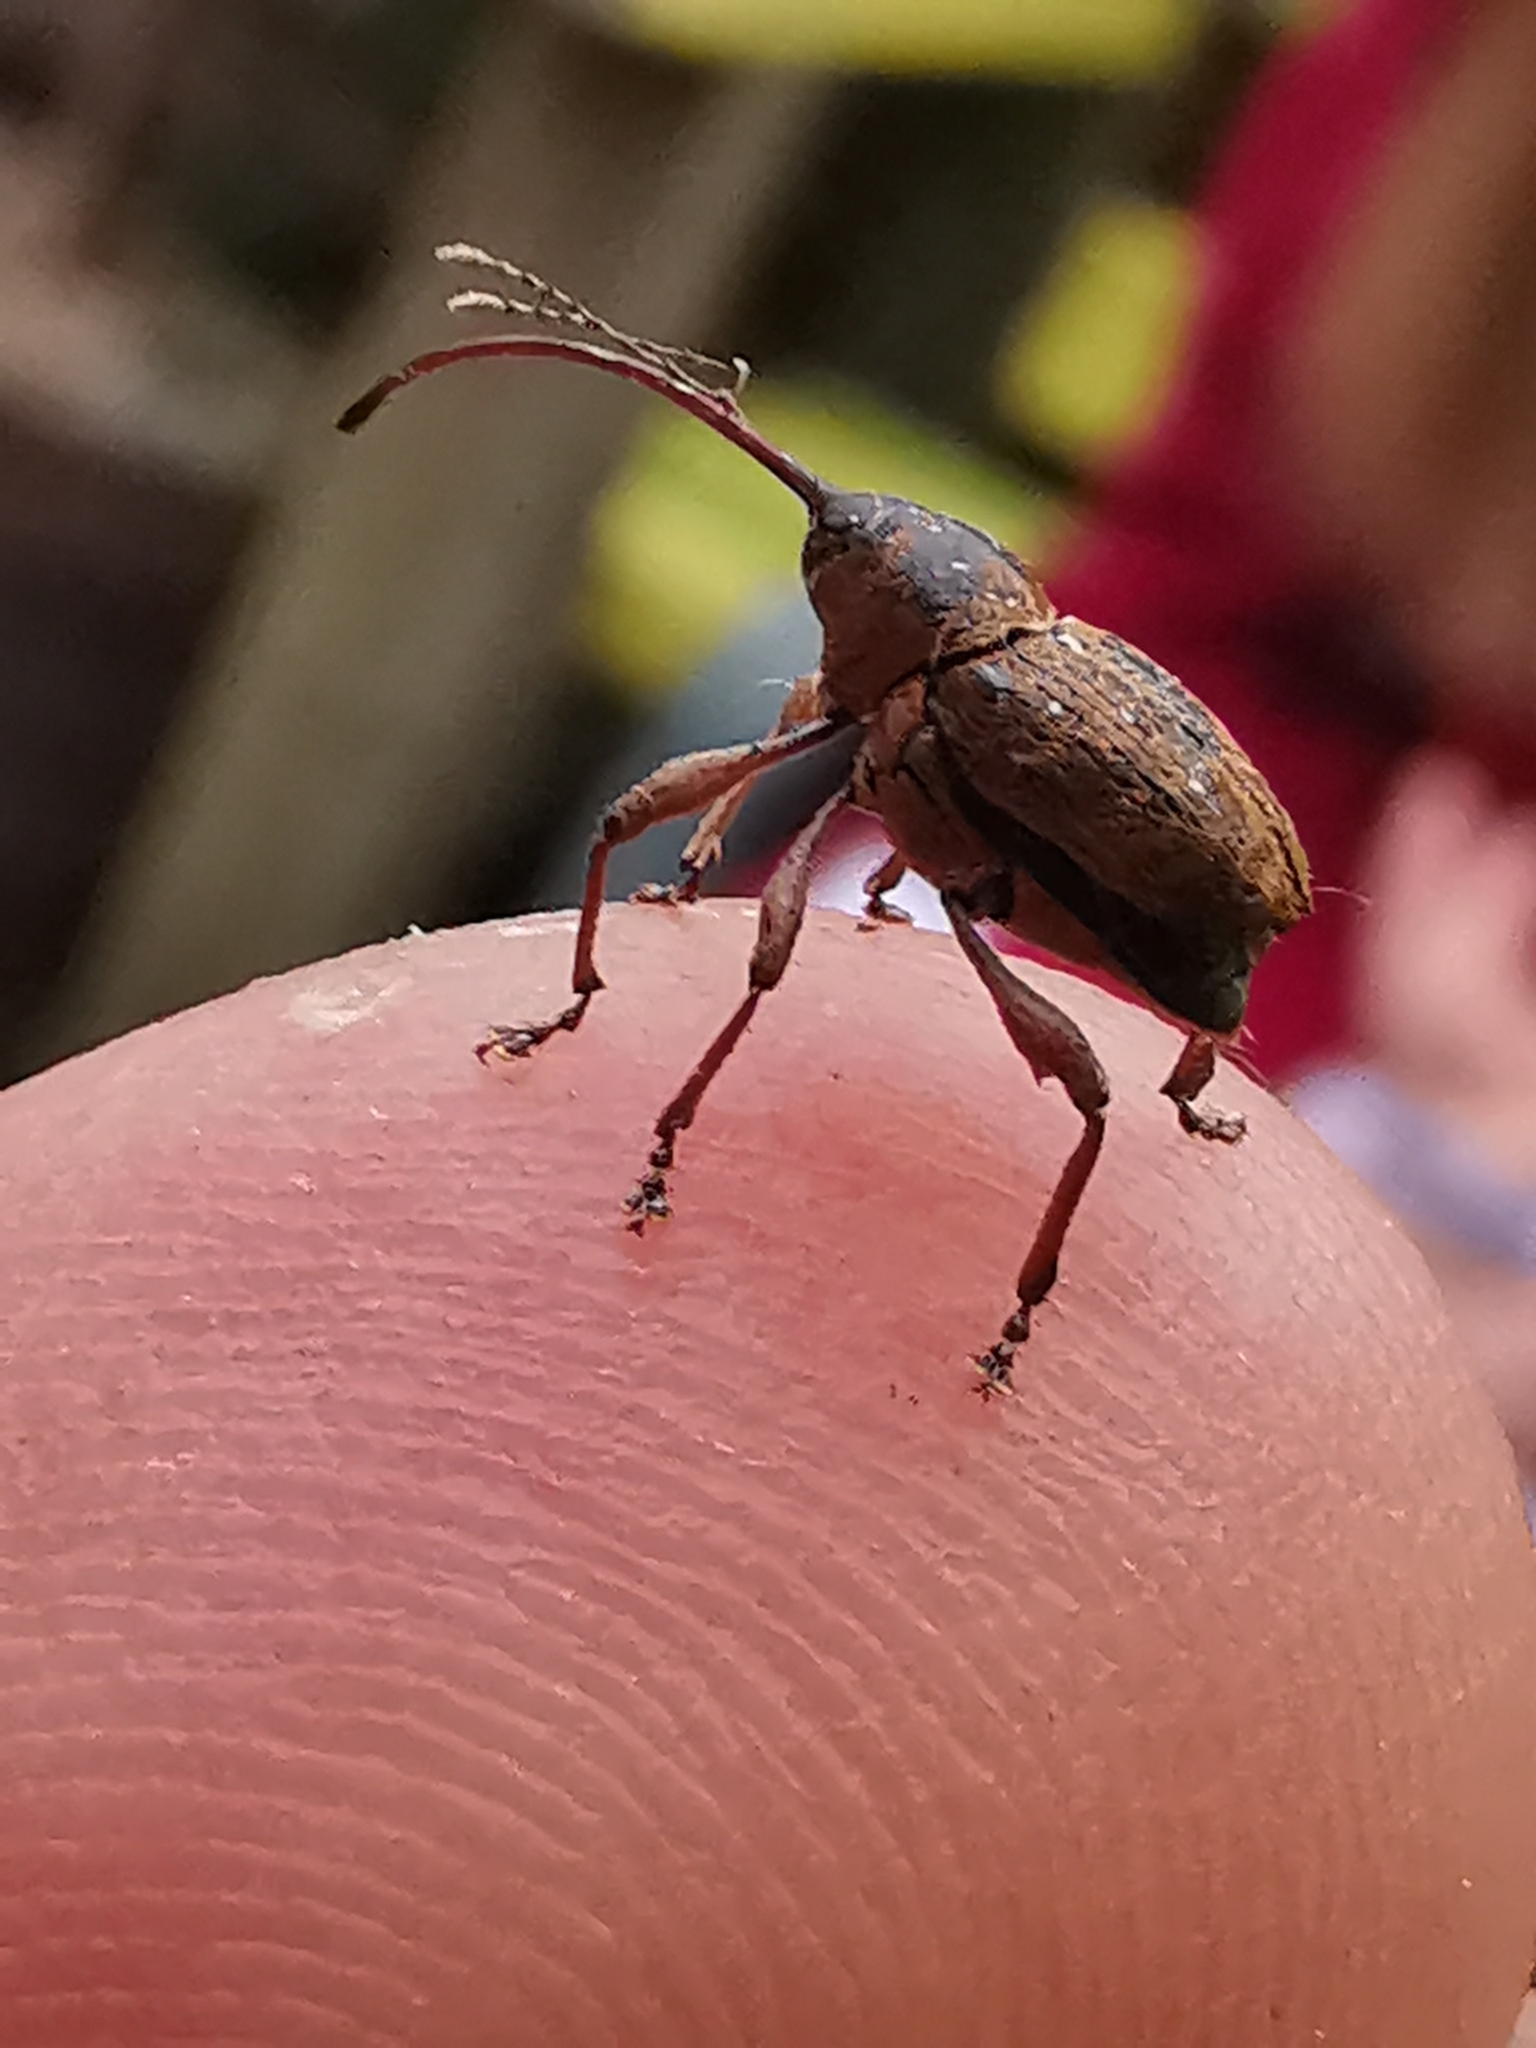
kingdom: Animalia
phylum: Arthropoda
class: Insecta
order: Coleoptera
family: Curculionidae
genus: Curculio
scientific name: Curculio glandium
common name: Acorn weevil
